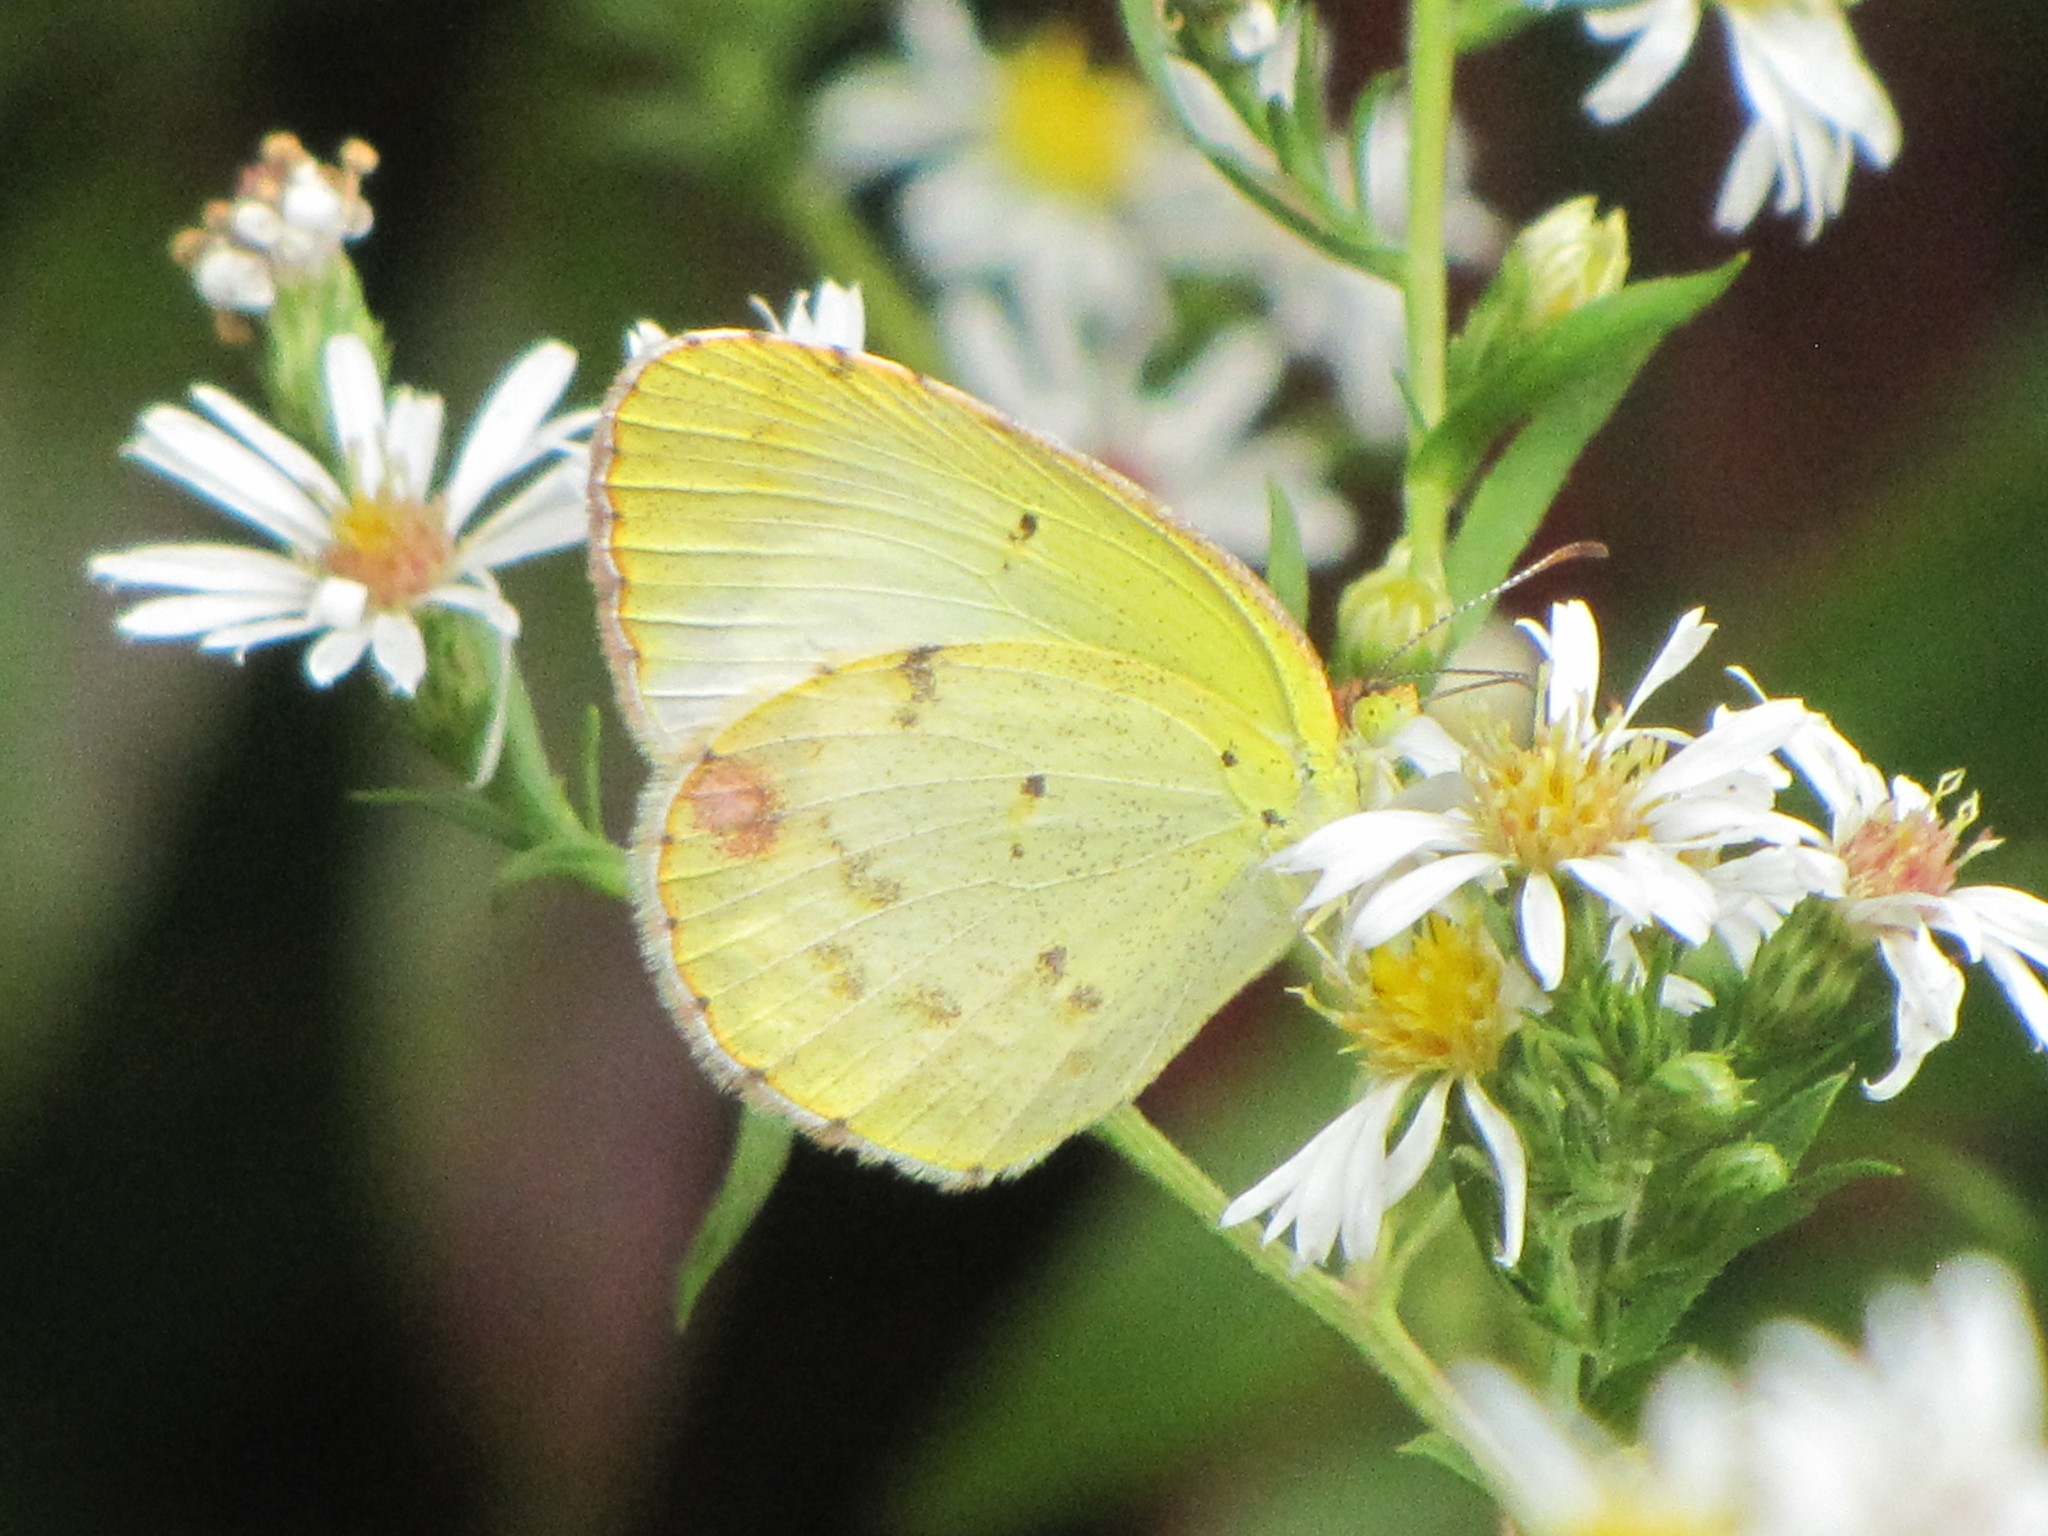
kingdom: Animalia
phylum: Arthropoda
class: Insecta
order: Lepidoptera
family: Pieridae
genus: Pyrisitia
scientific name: Pyrisitia lisa
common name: Little yellow
